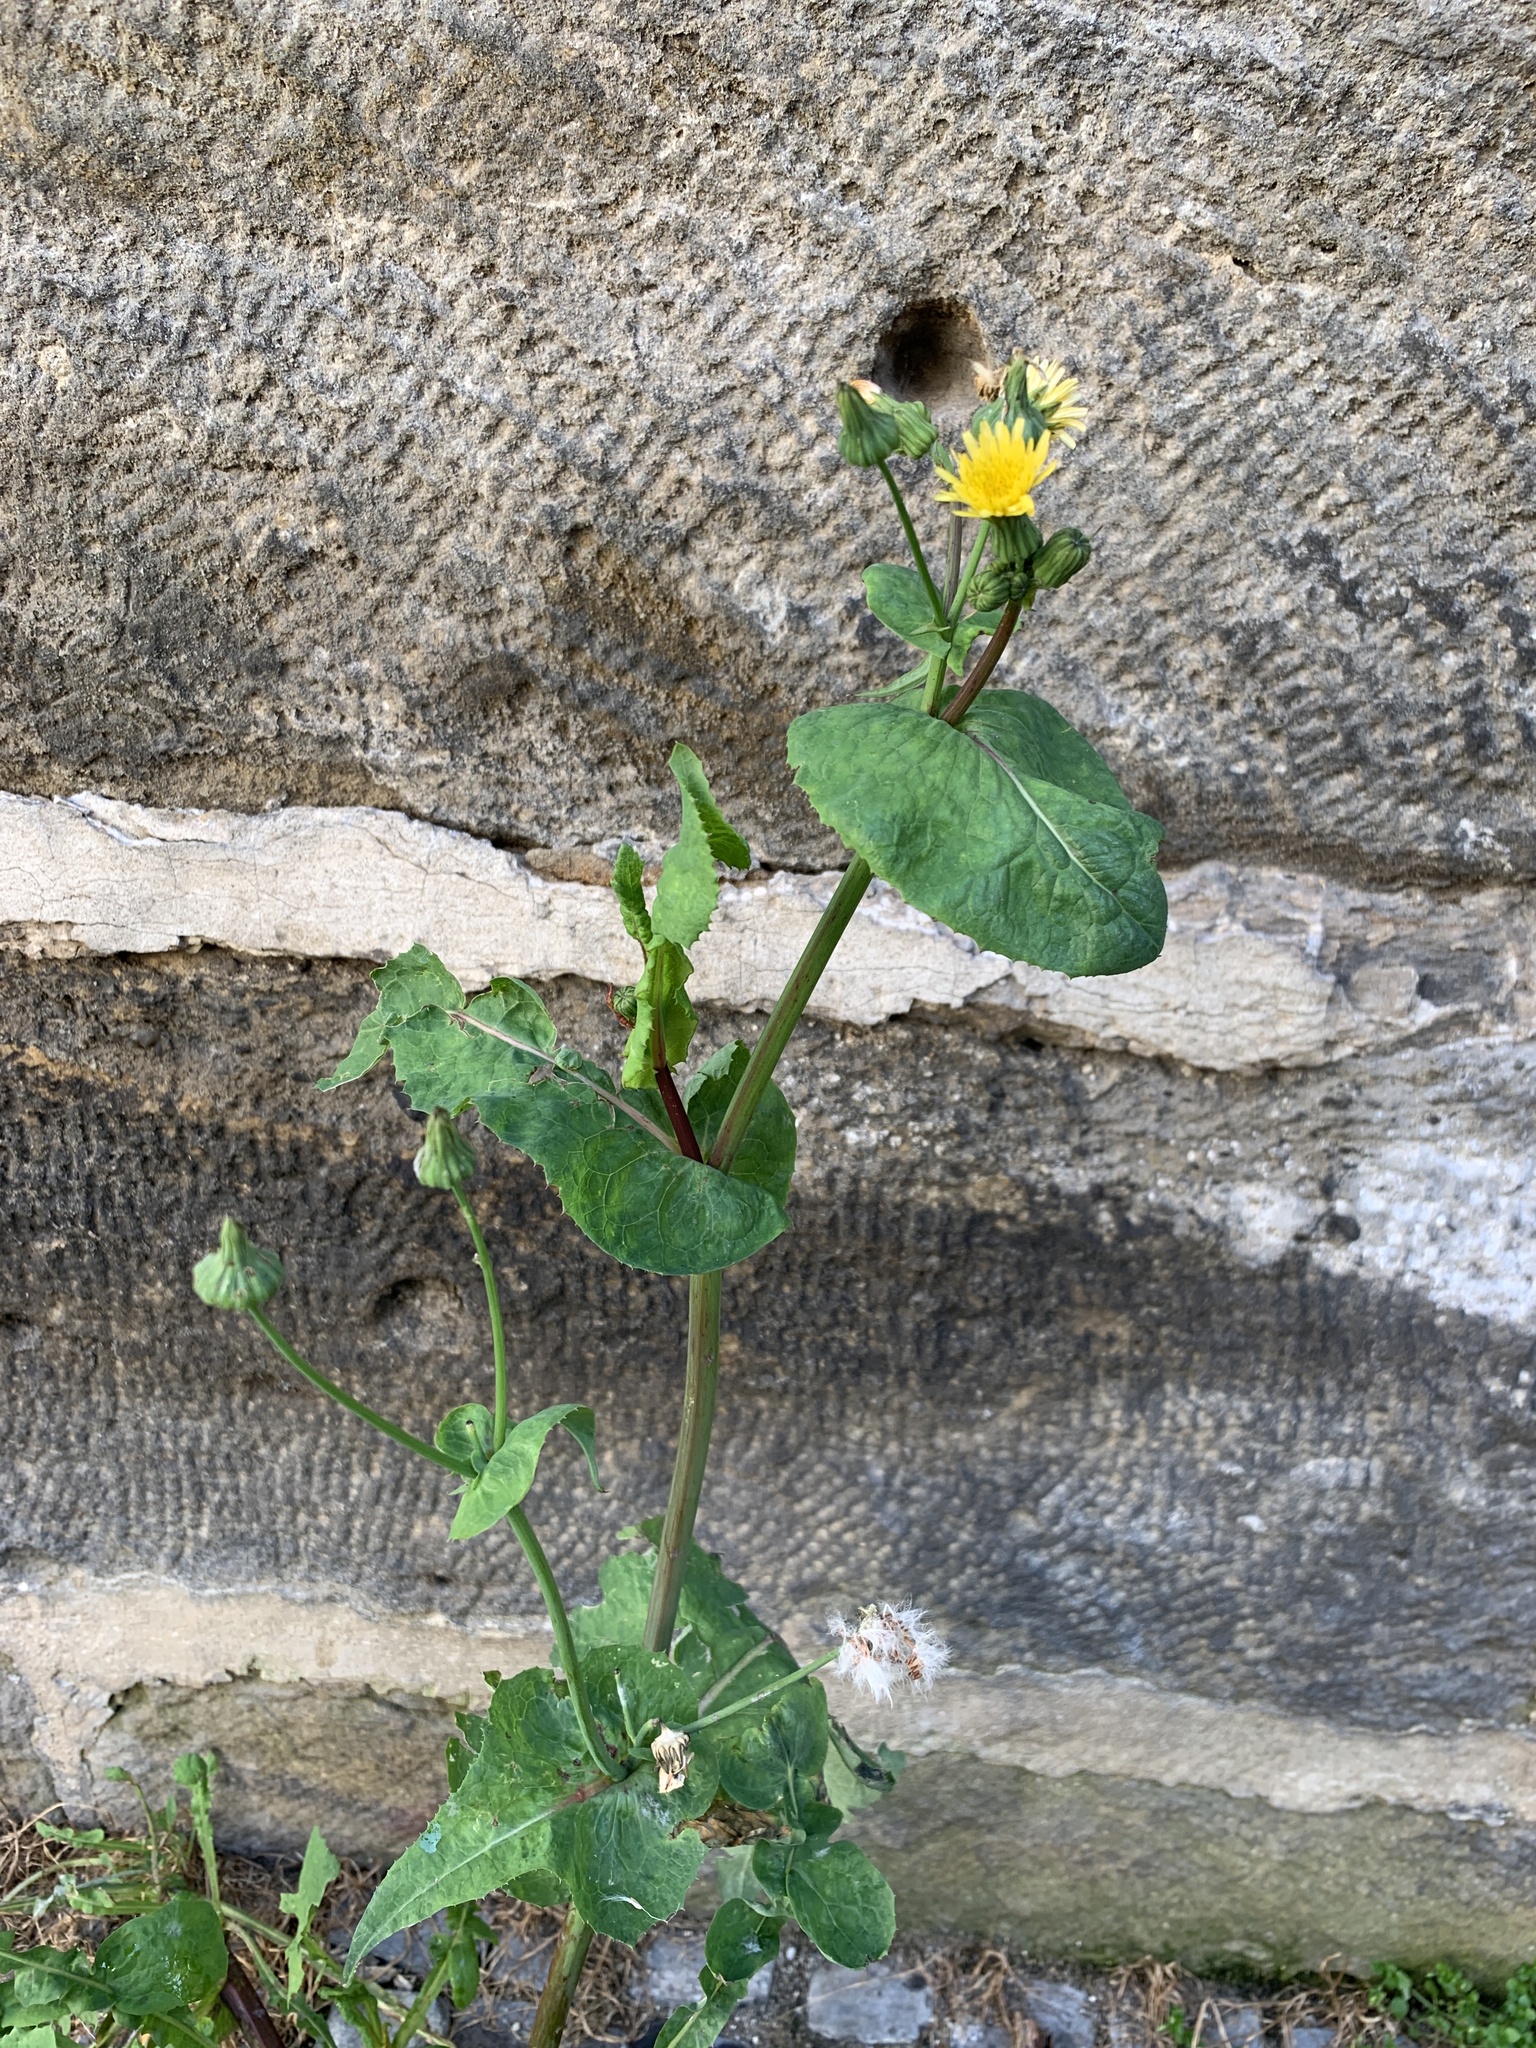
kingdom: Plantae
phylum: Tracheophyta
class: Magnoliopsida
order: Asterales
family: Asteraceae
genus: Sonchus
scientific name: Sonchus oleraceus
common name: Common sowthistle
